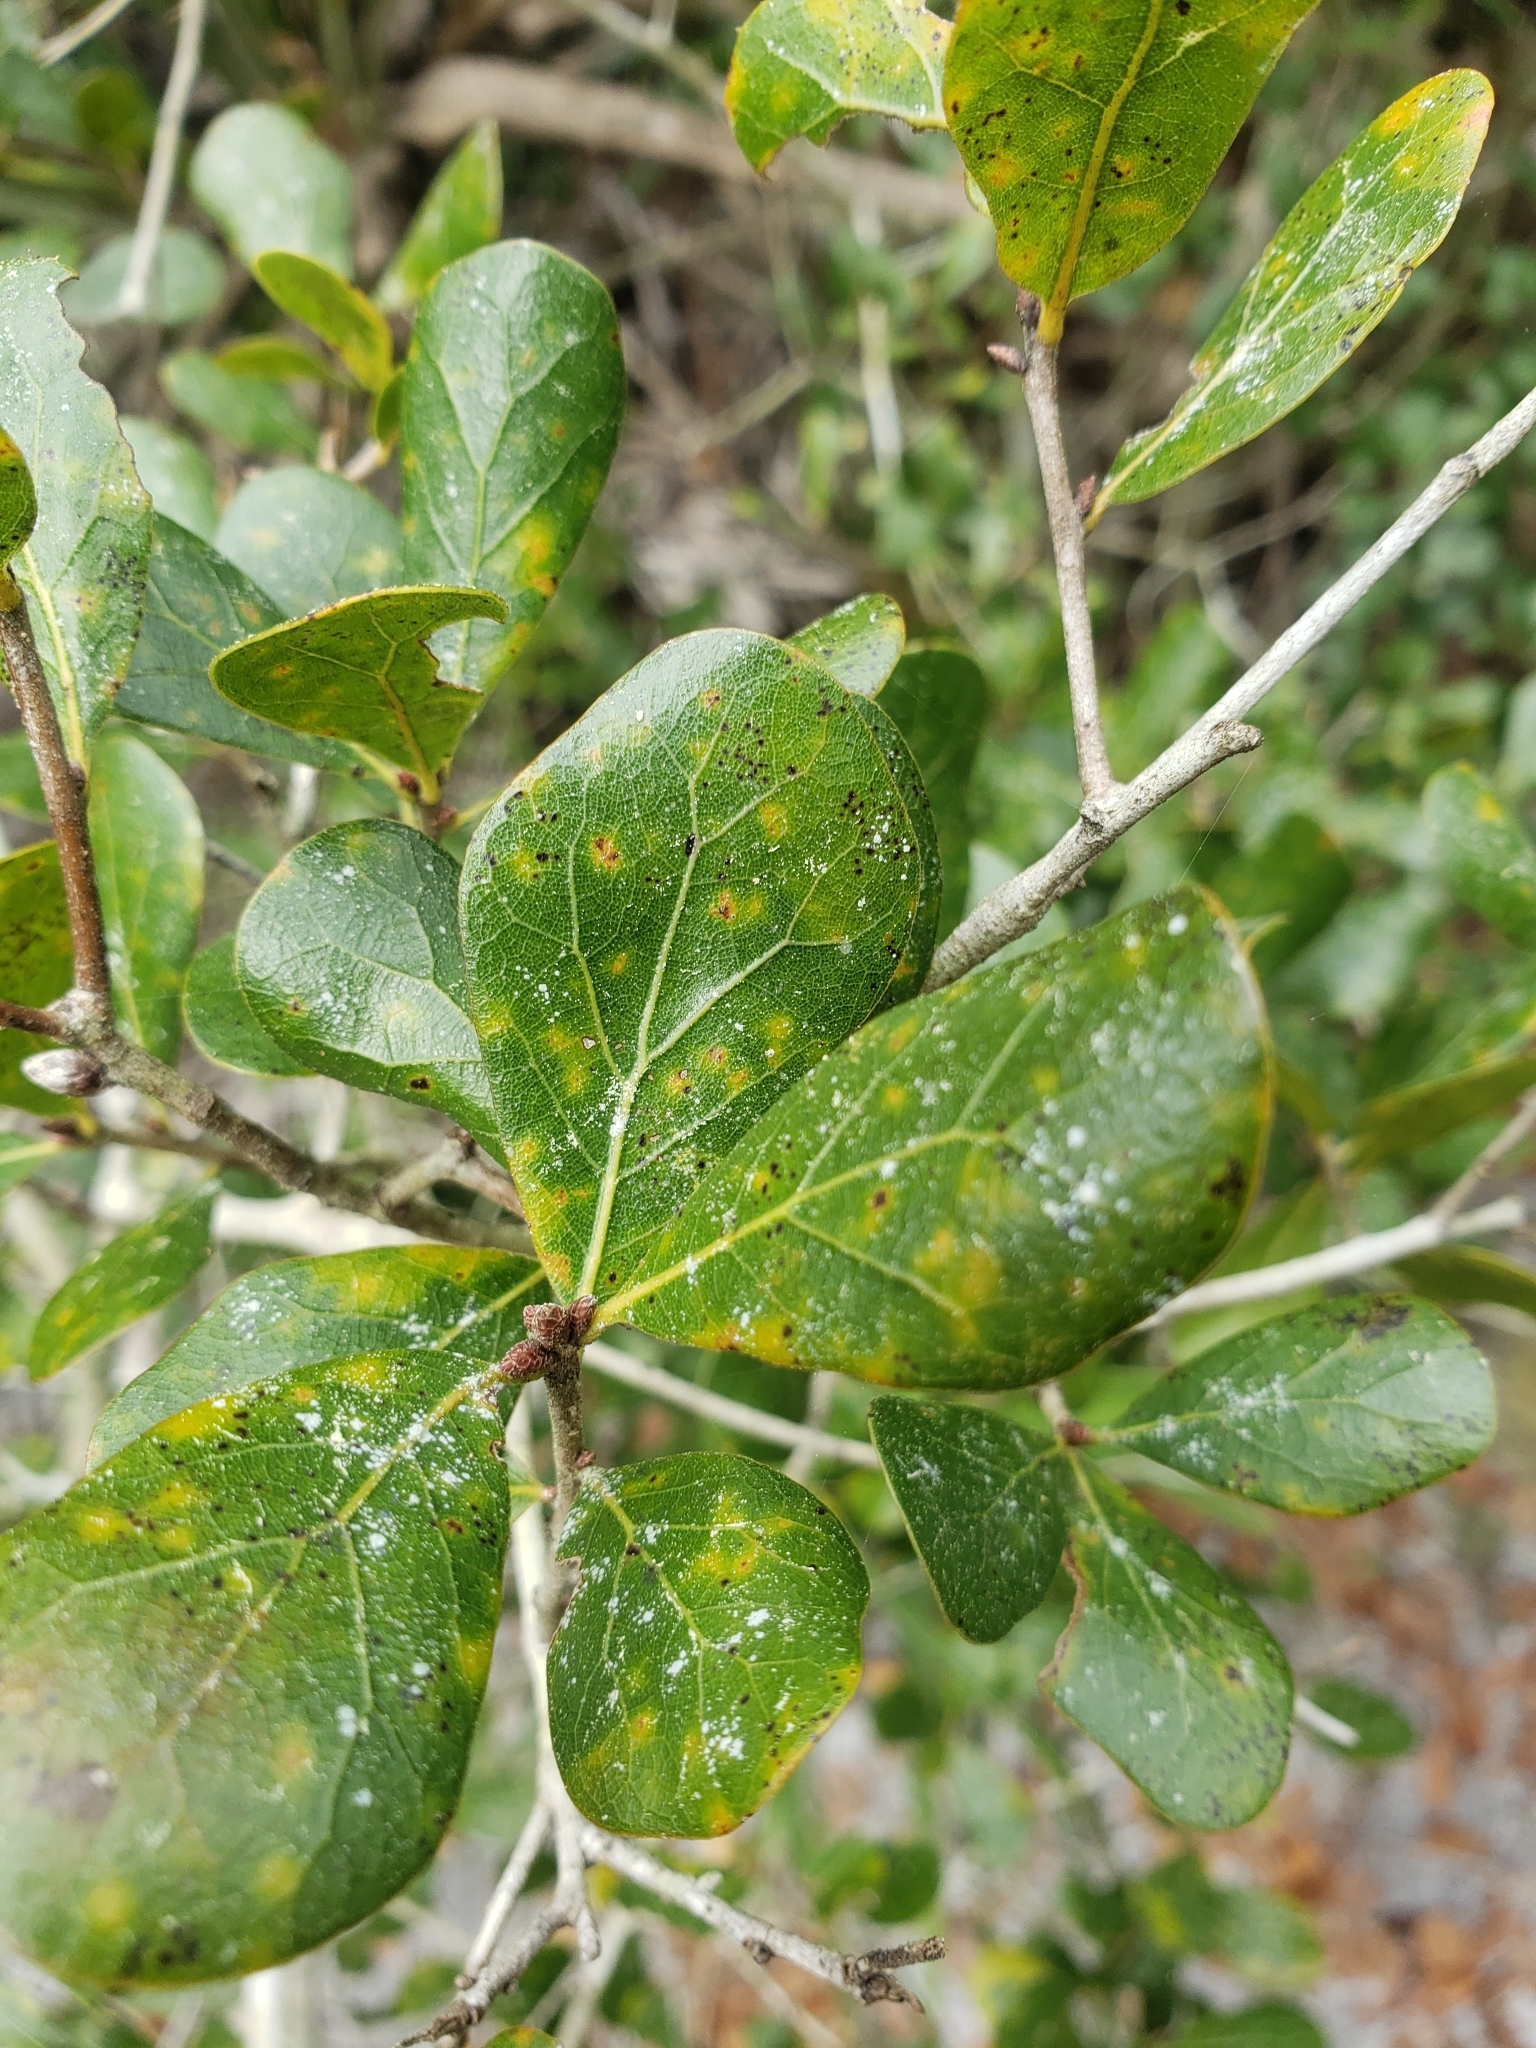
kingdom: Plantae
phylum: Tracheophyta
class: Magnoliopsida
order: Fagales
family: Fagaceae
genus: Quercus
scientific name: Quercus myrtifolia
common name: Myrtle oak
